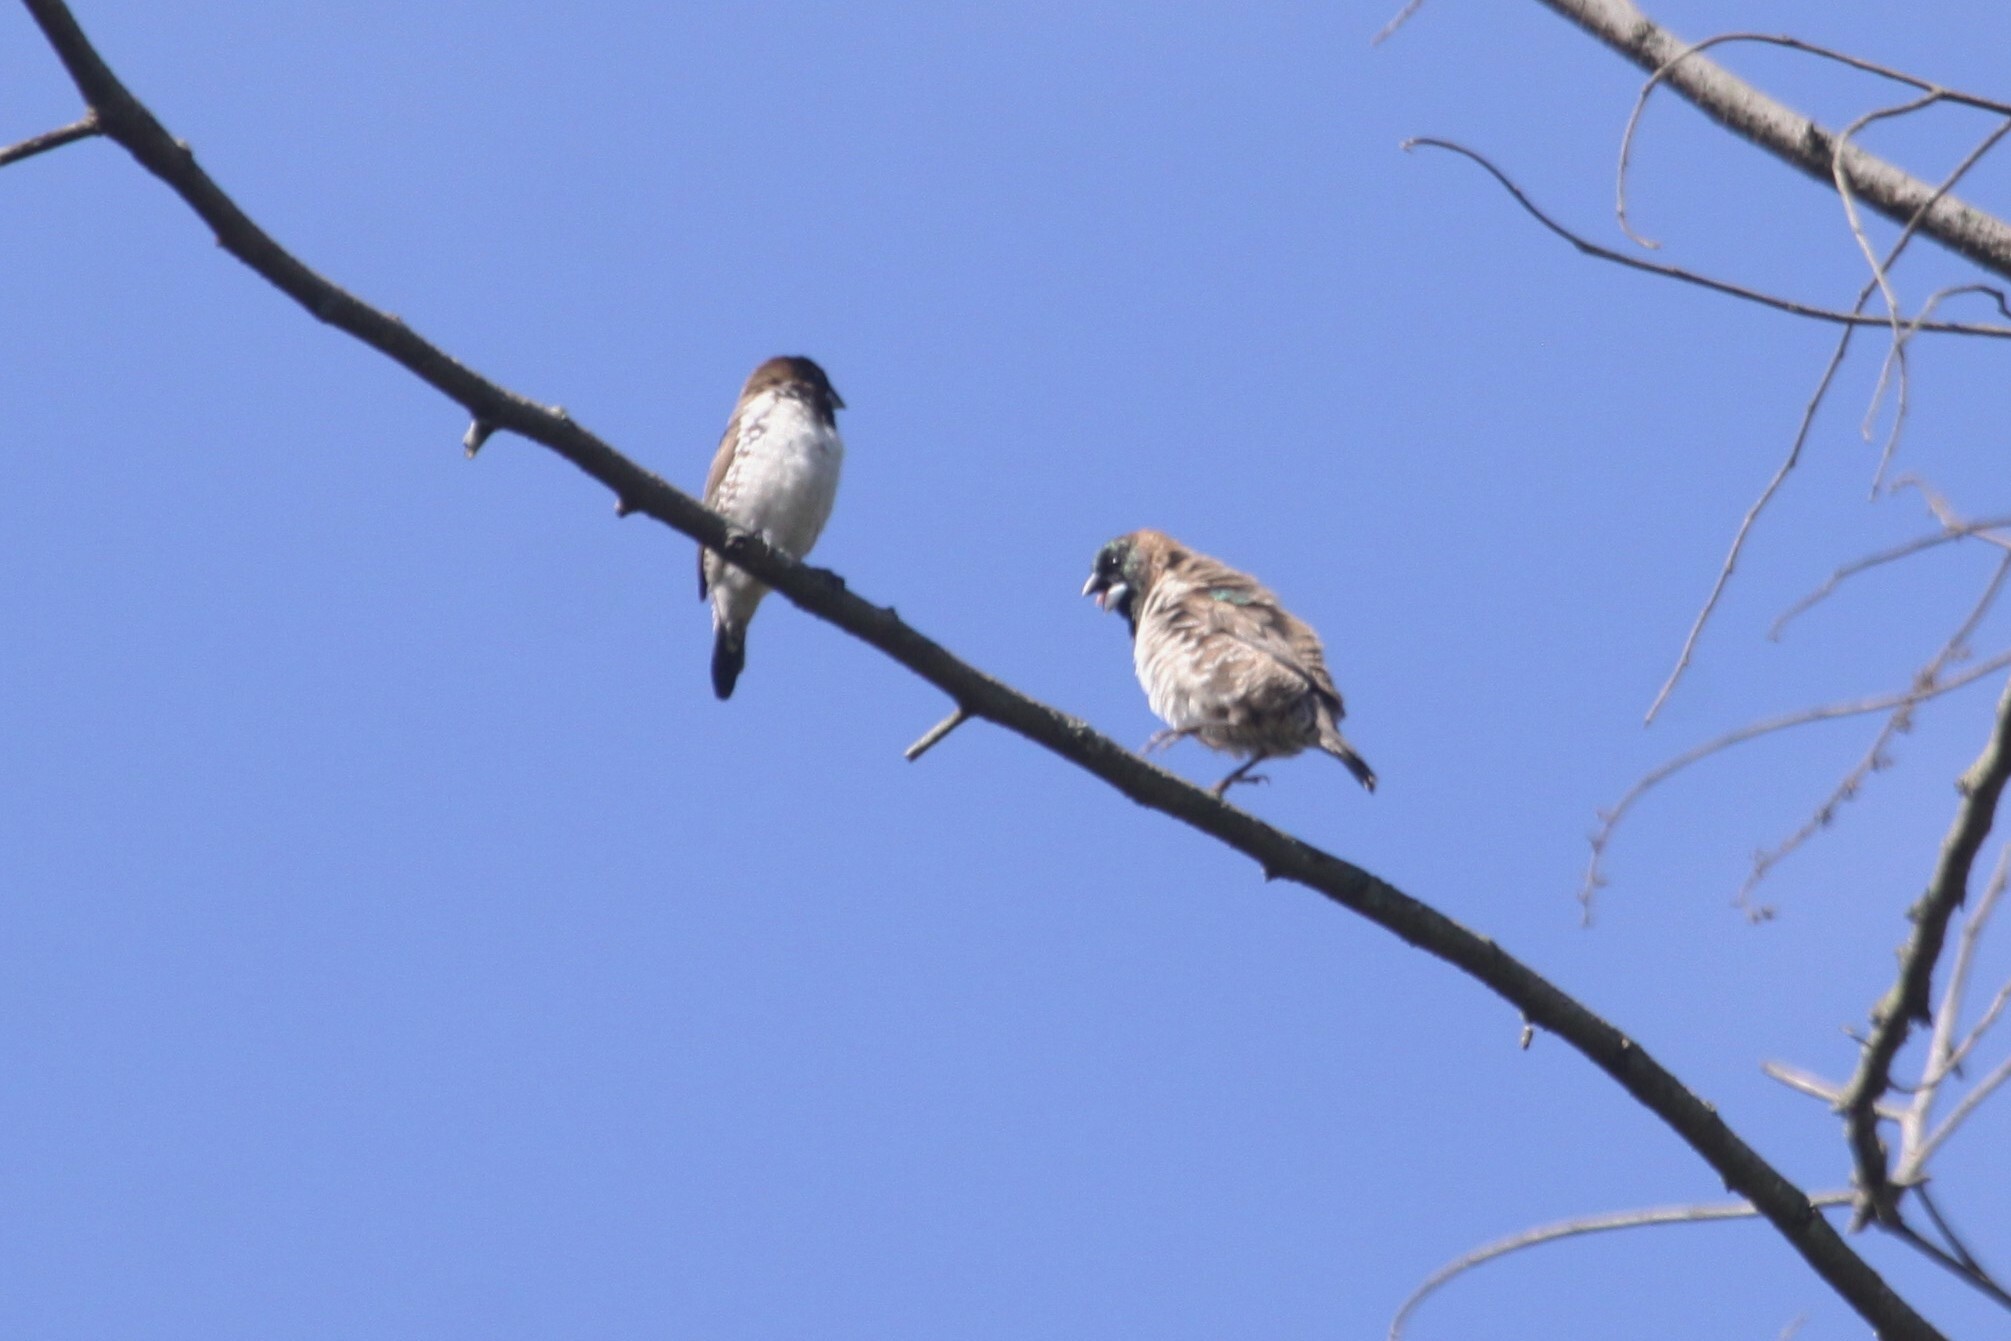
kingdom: Animalia
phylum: Chordata
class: Aves
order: Passeriformes
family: Estrildidae
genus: Lonchura
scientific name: Lonchura cucullata
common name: Bronze mannikin
